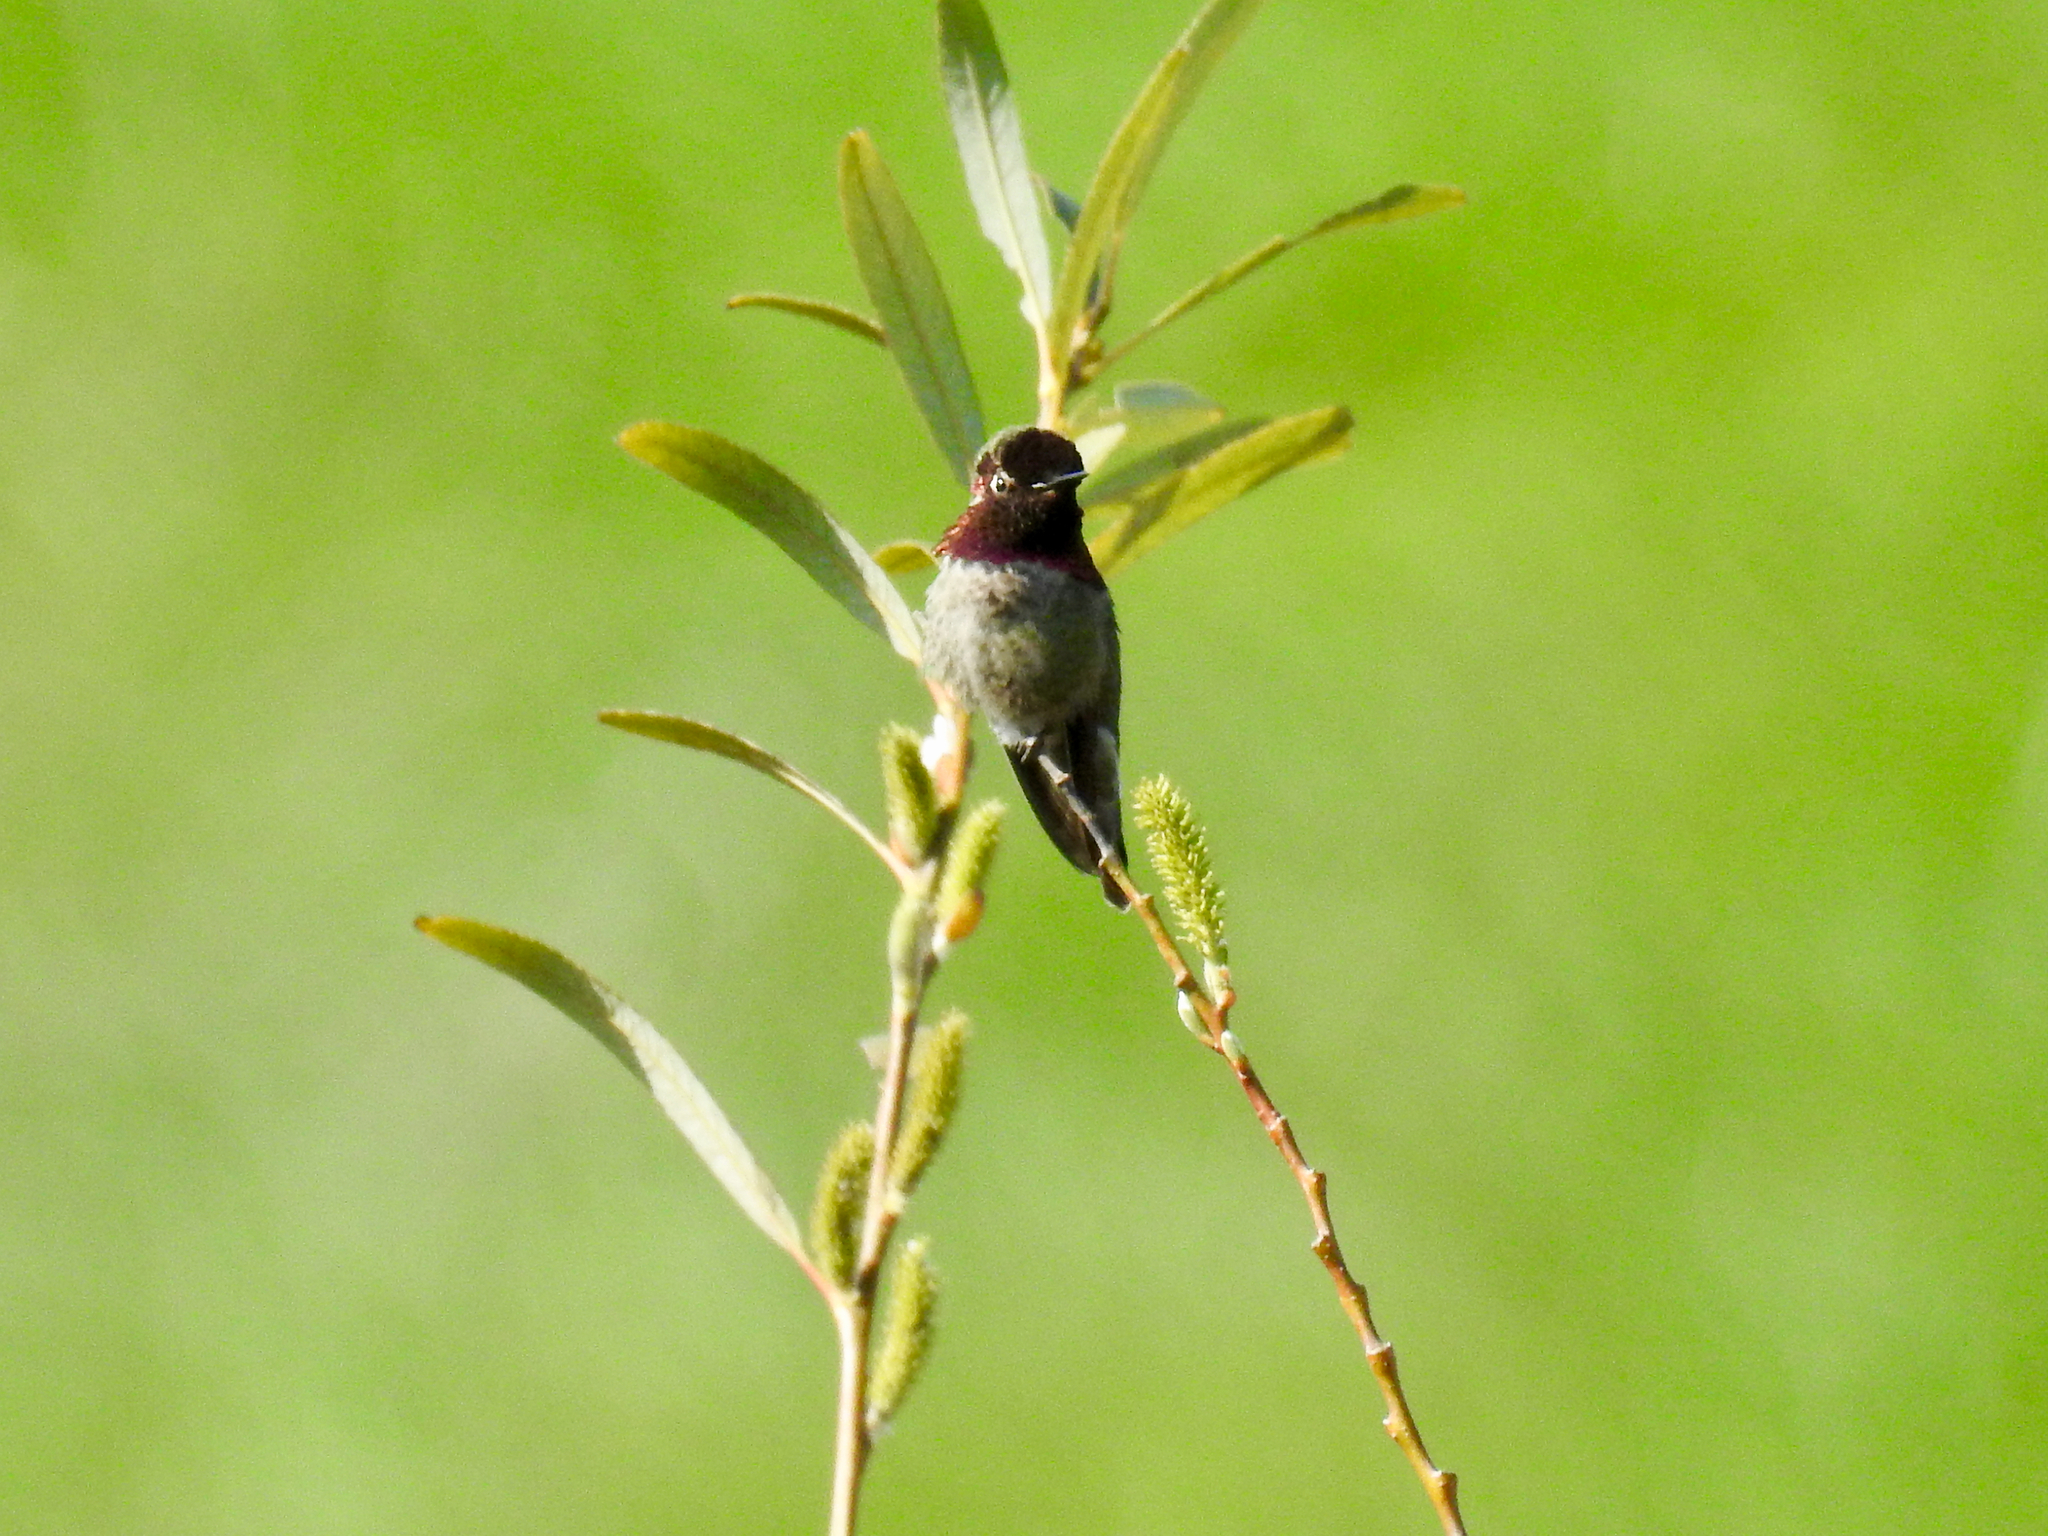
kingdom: Animalia
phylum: Chordata
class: Aves
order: Apodiformes
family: Trochilidae
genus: Calypte
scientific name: Calypte anna
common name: Anna's hummingbird
